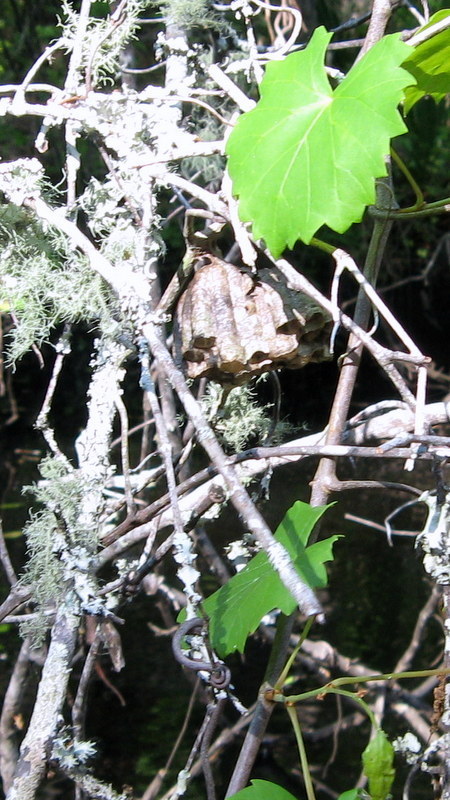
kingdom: Animalia
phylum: Arthropoda
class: Insecta
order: Hymenoptera
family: Vespidae
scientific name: Vespidae
